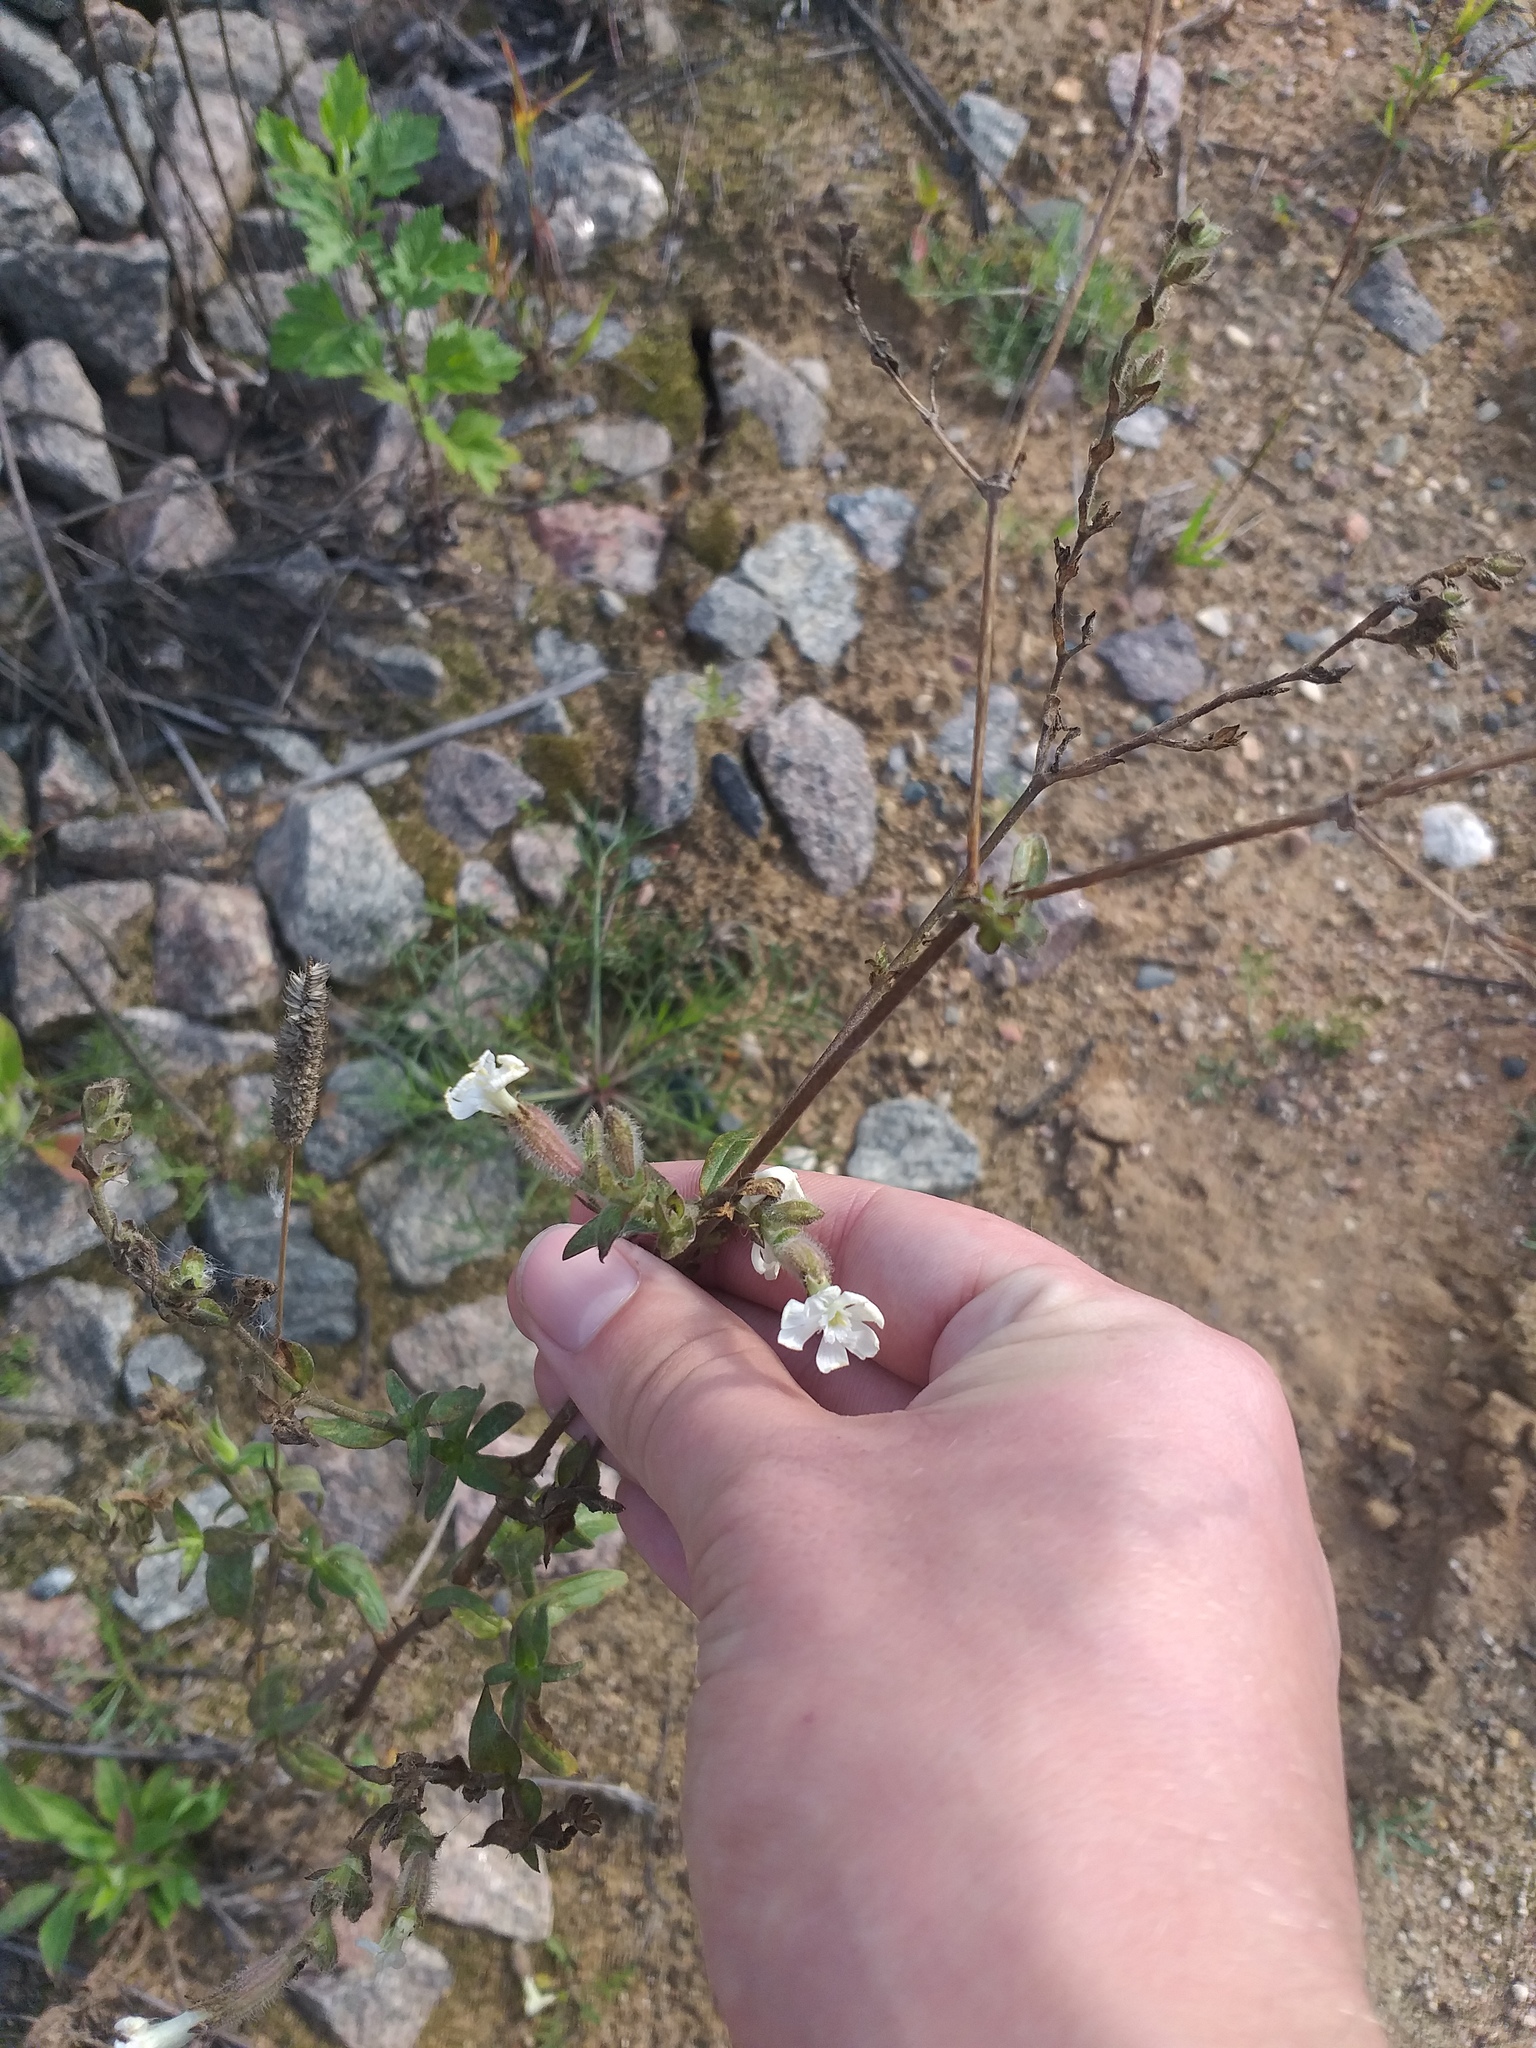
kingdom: Plantae
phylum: Tracheophyta
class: Magnoliopsida
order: Caryophyllales
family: Caryophyllaceae
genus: Silene
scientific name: Silene latifolia
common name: White campion
